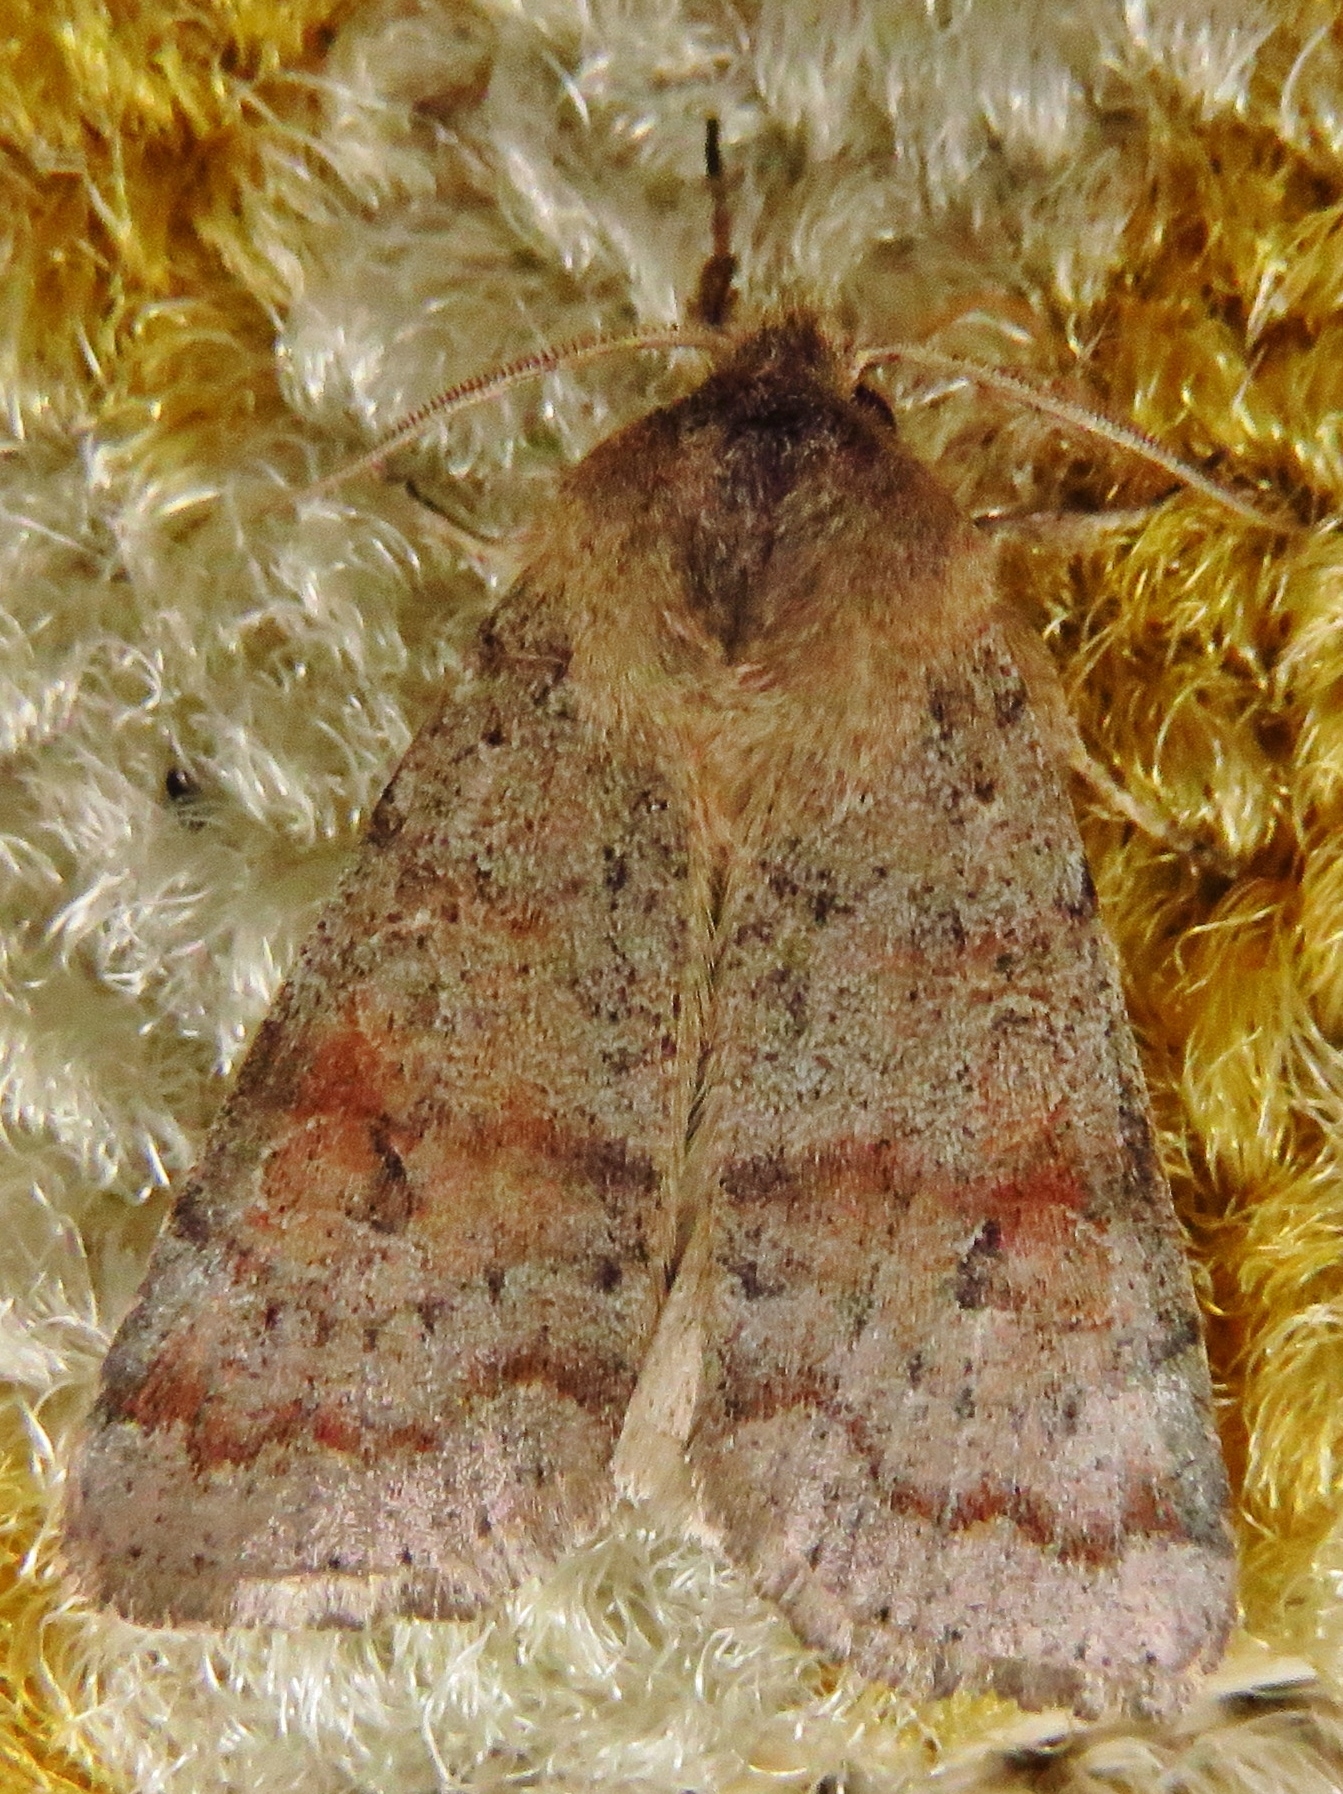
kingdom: Animalia
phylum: Arthropoda
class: Insecta
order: Lepidoptera
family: Noctuidae
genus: Orthosia
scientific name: Orthosia alurina
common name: Gray quaker
